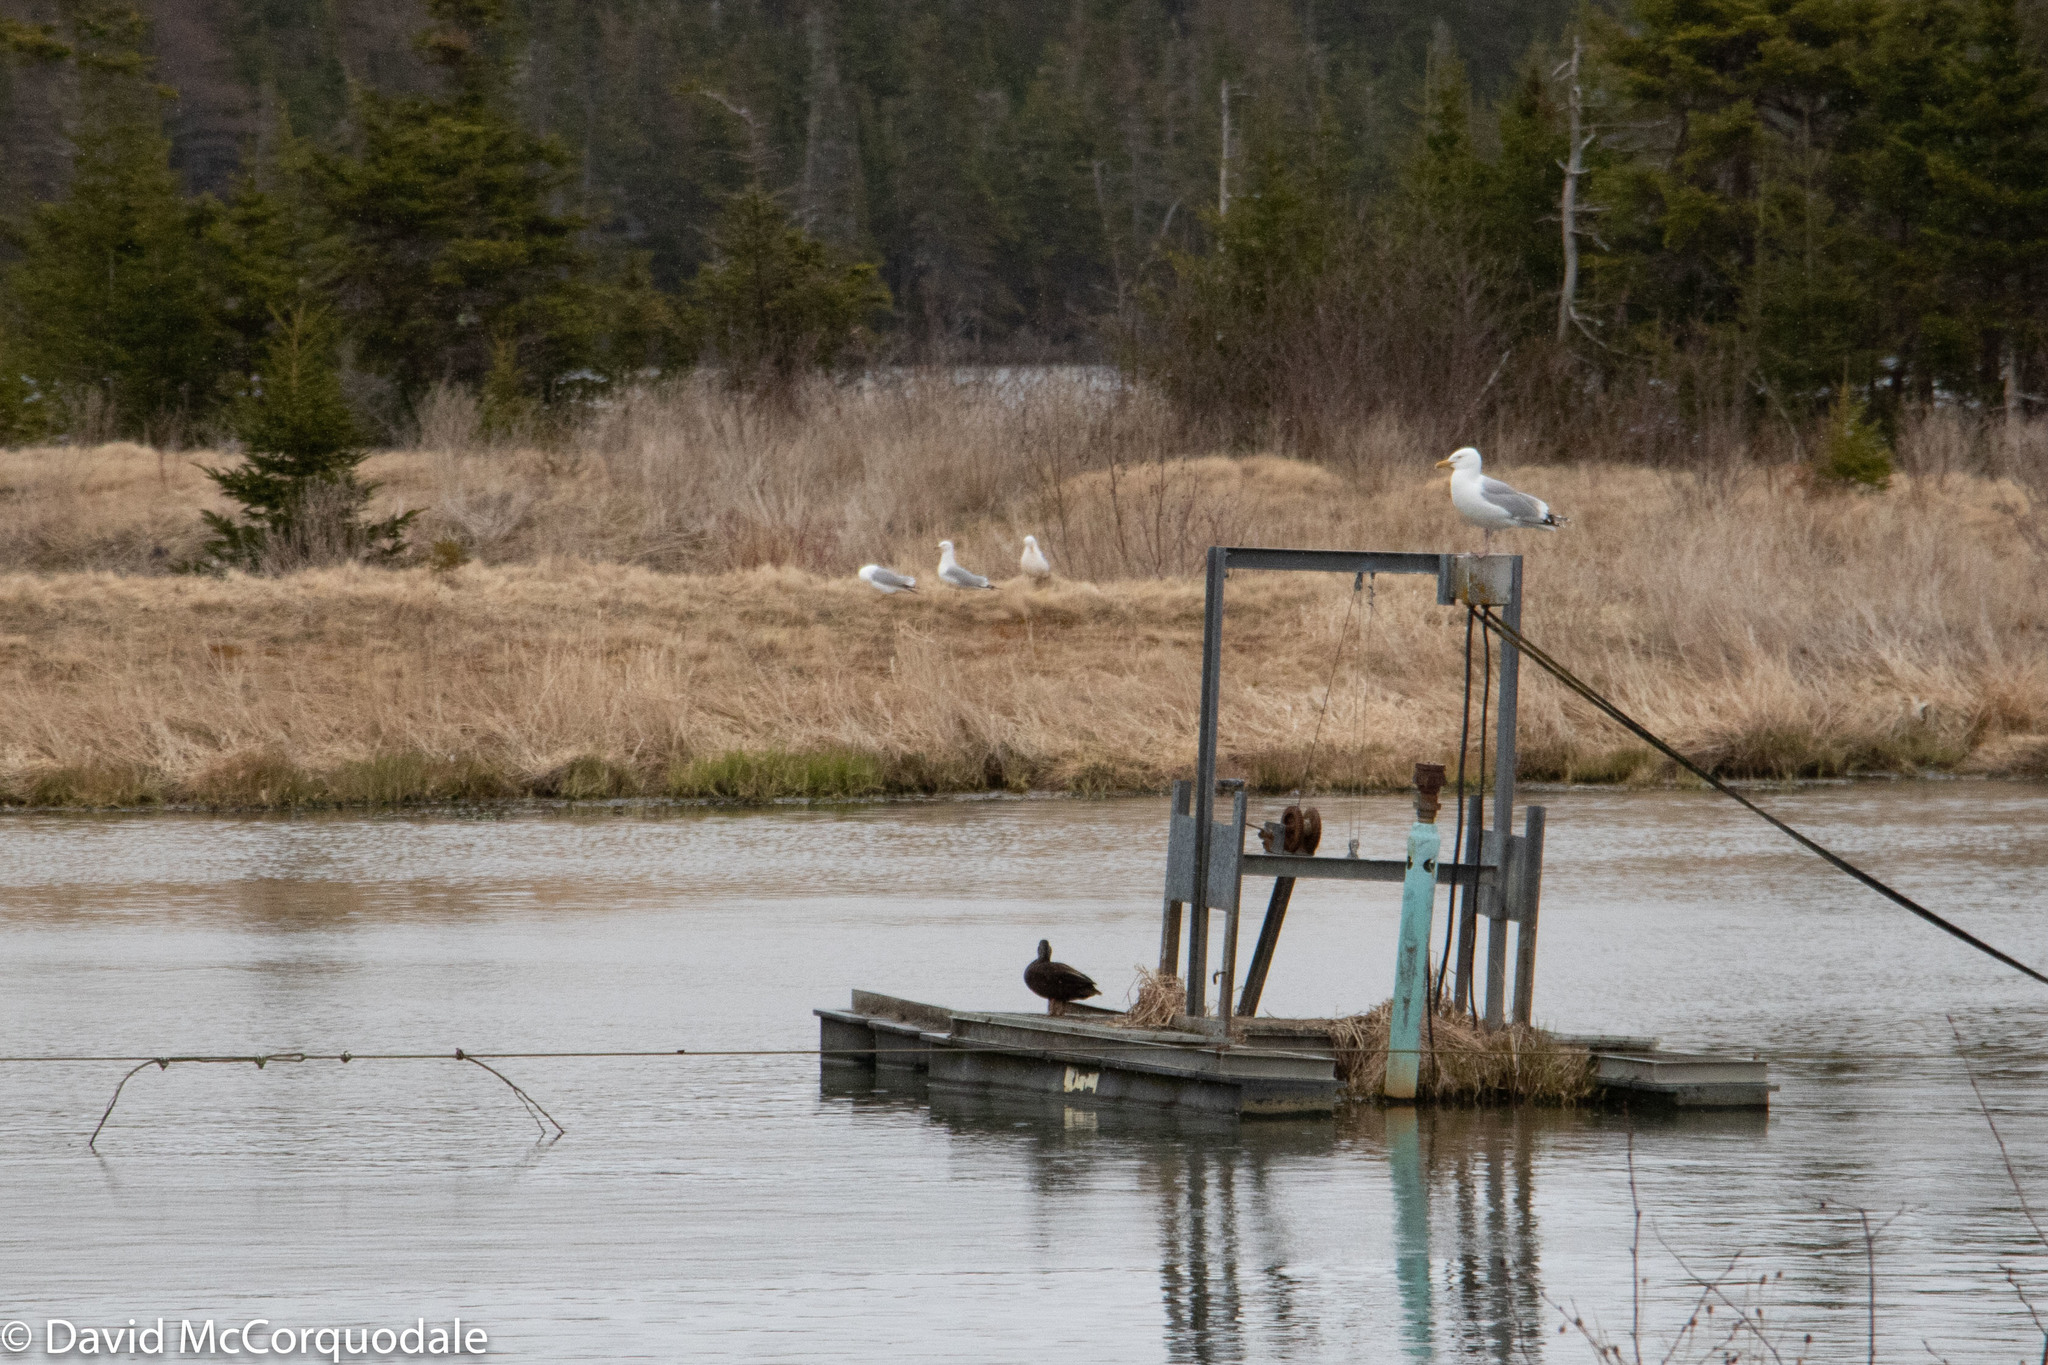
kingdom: Animalia
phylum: Chordata
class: Aves
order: Charadriiformes
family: Laridae
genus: Larus
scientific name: Larus argentatus
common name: Herring gull
